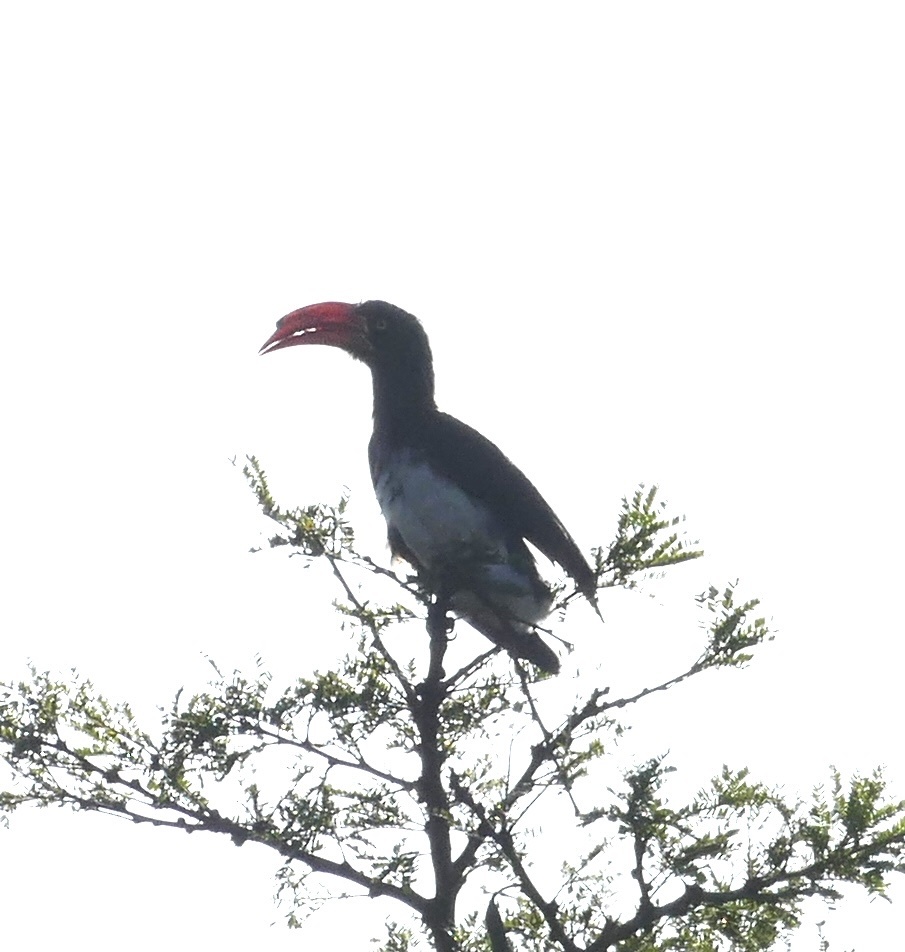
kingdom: Animalia
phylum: Chordata
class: Aves
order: Bucerotiformes
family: Bucerotidae
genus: Lophoceros
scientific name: Lophoceros alboterminatus
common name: Crowned hornbill
